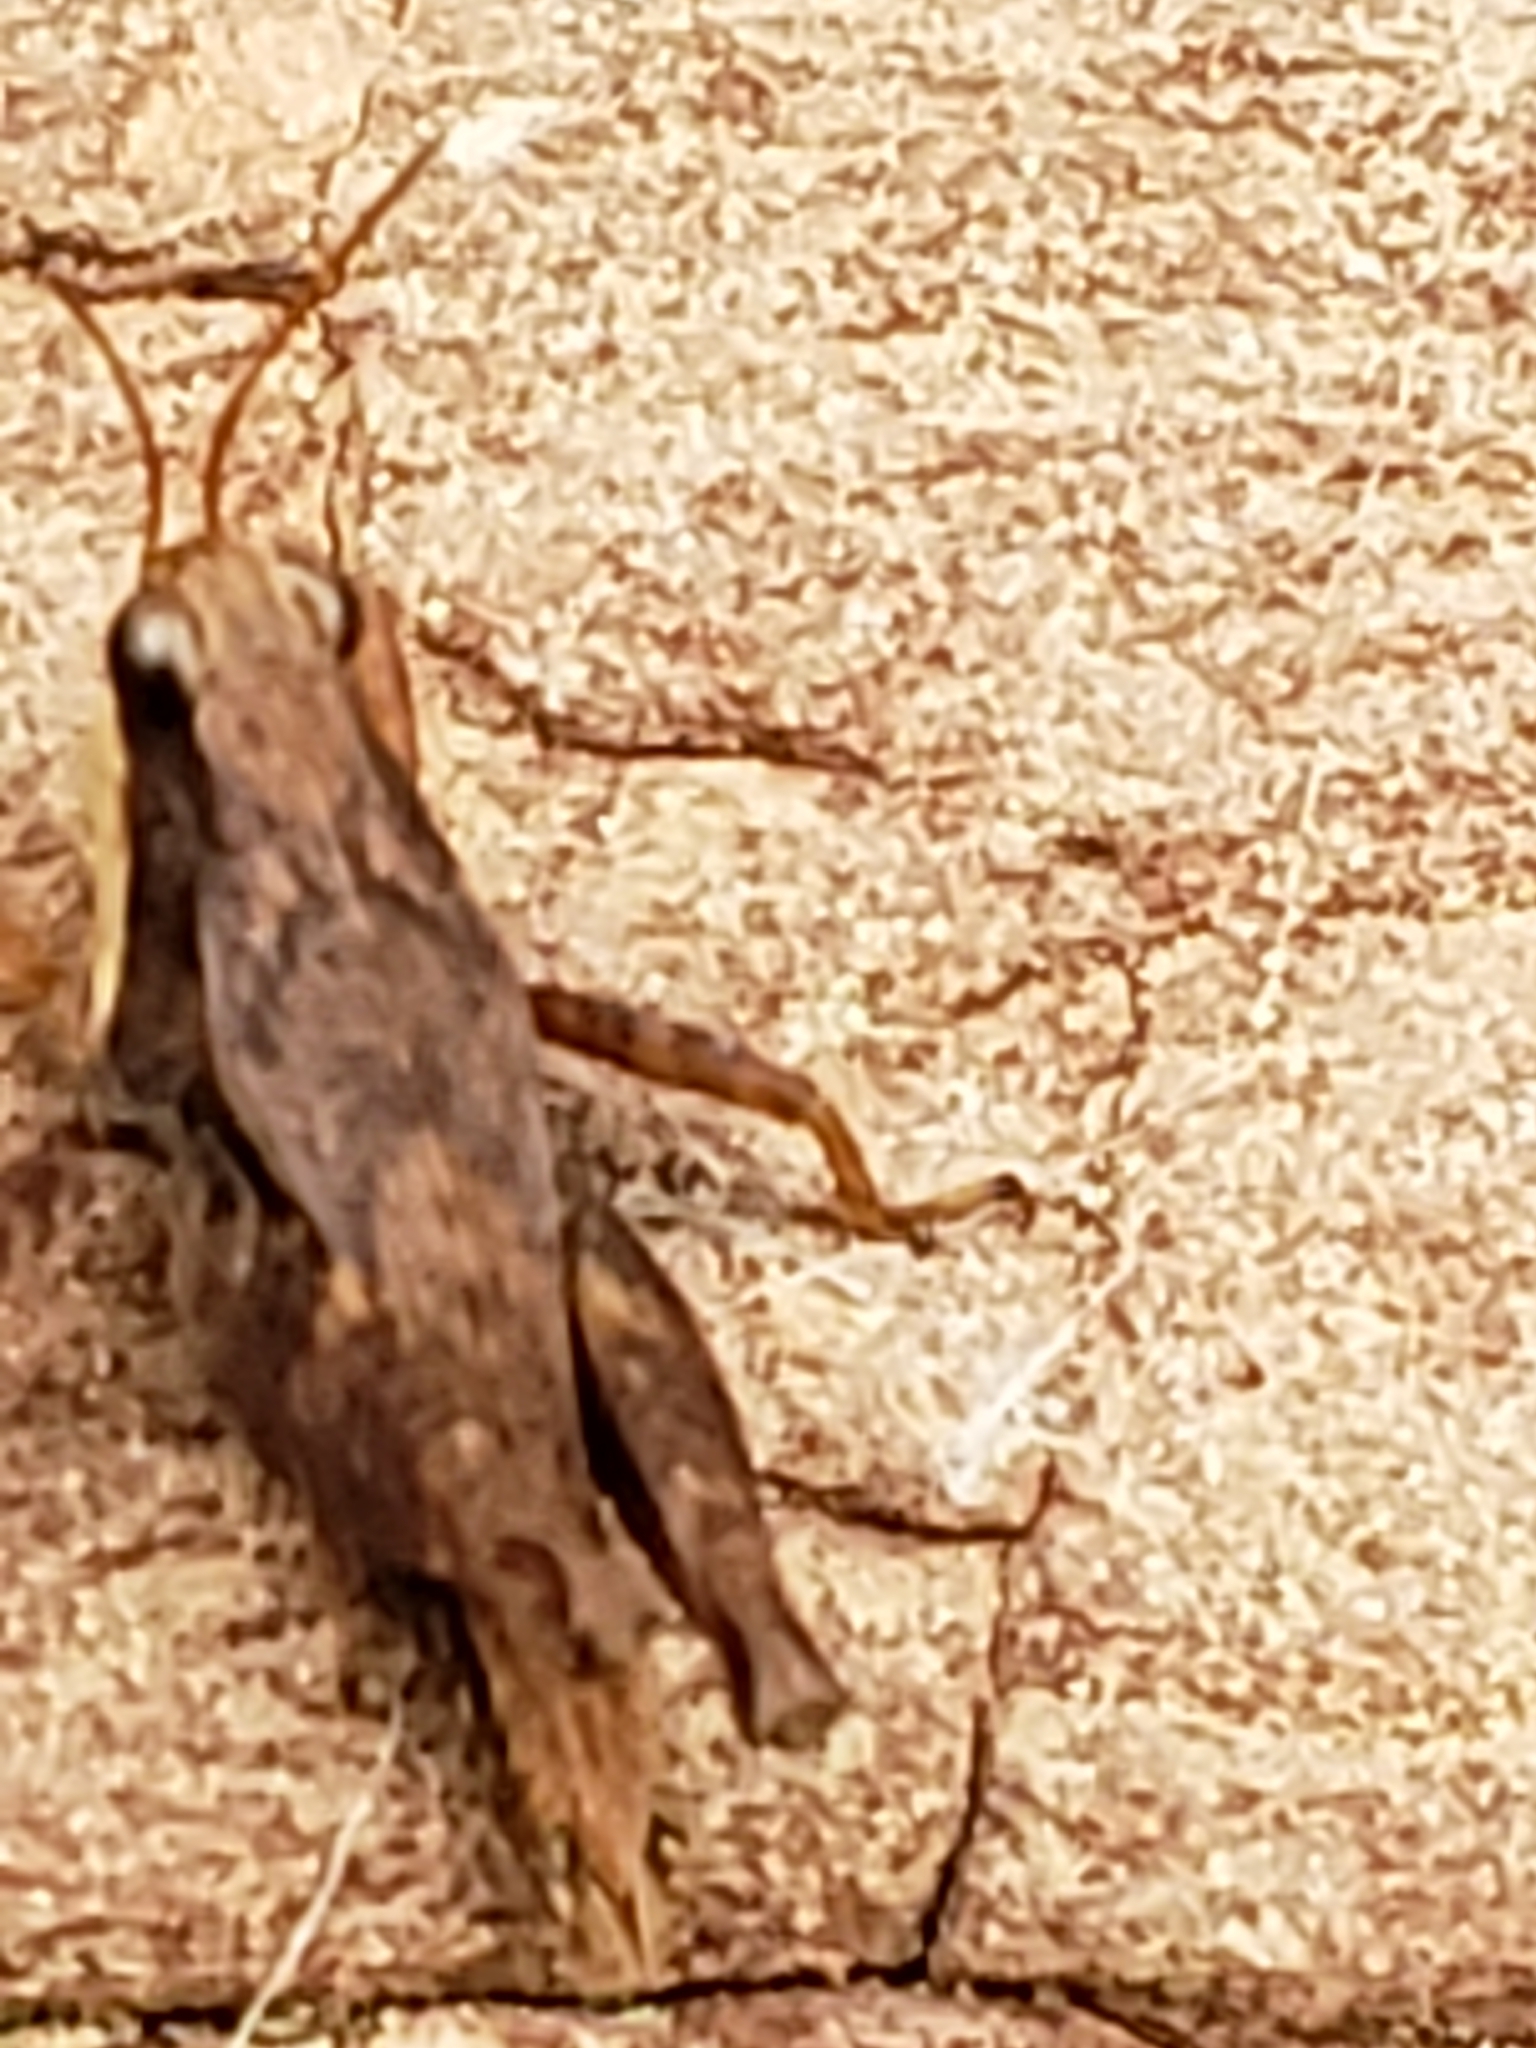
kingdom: Animalia
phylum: Arthropoda
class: Insecta
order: Orthoptera
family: Tetrigidae
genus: Tettigidea
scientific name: Tettigidea laterale
